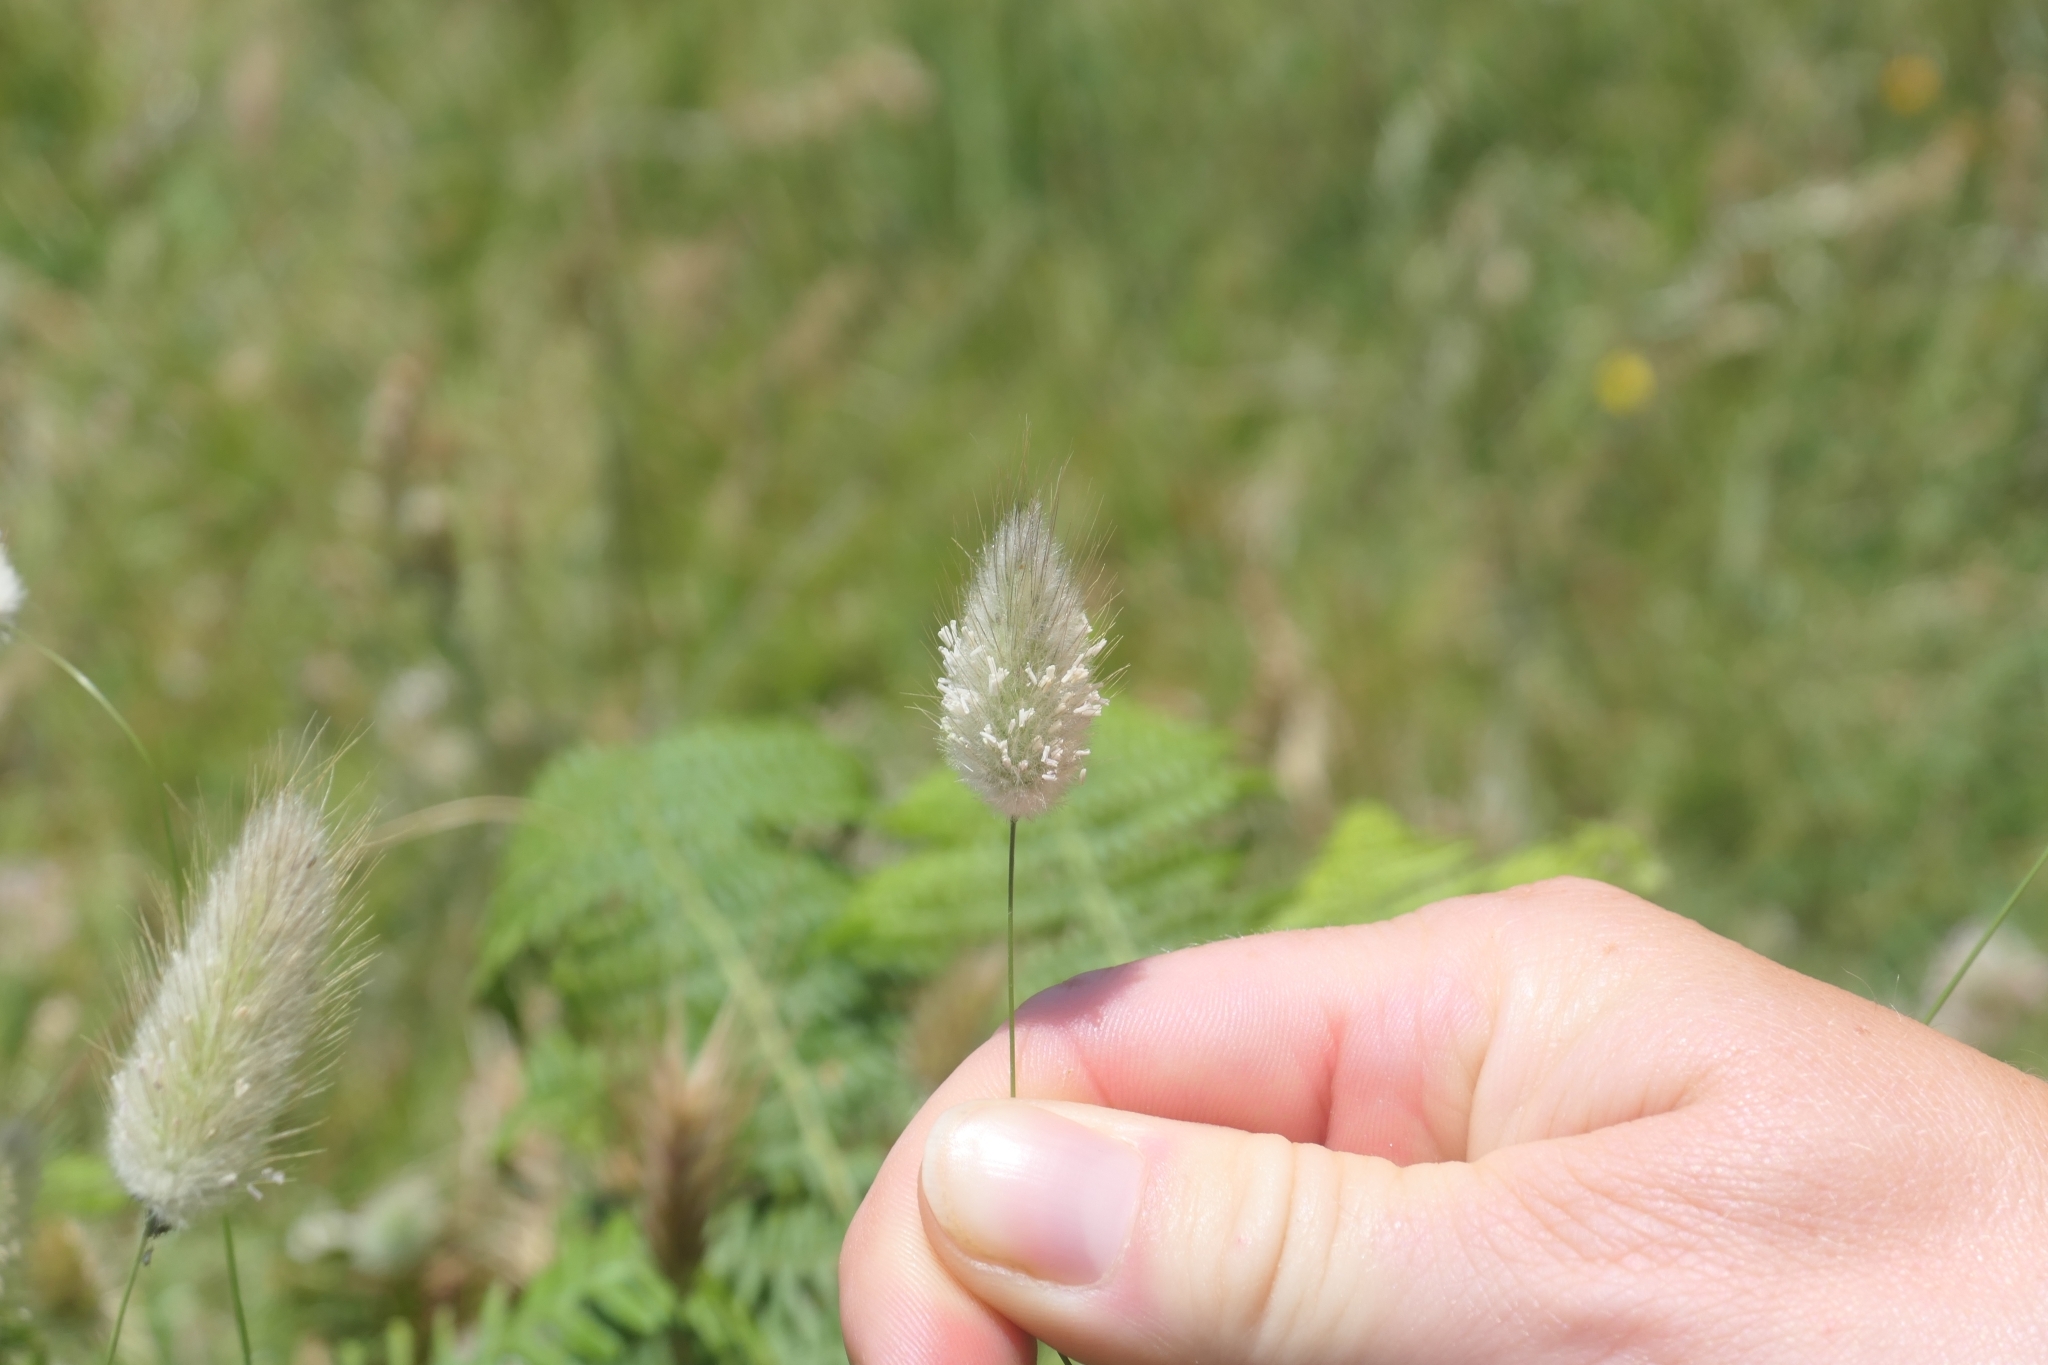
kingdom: Plantae
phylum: Tracheophyta
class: Liliopsida
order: Poales
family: Poaceae
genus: Lagurus
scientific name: Lagurus ovatus
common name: Hare's-tail
